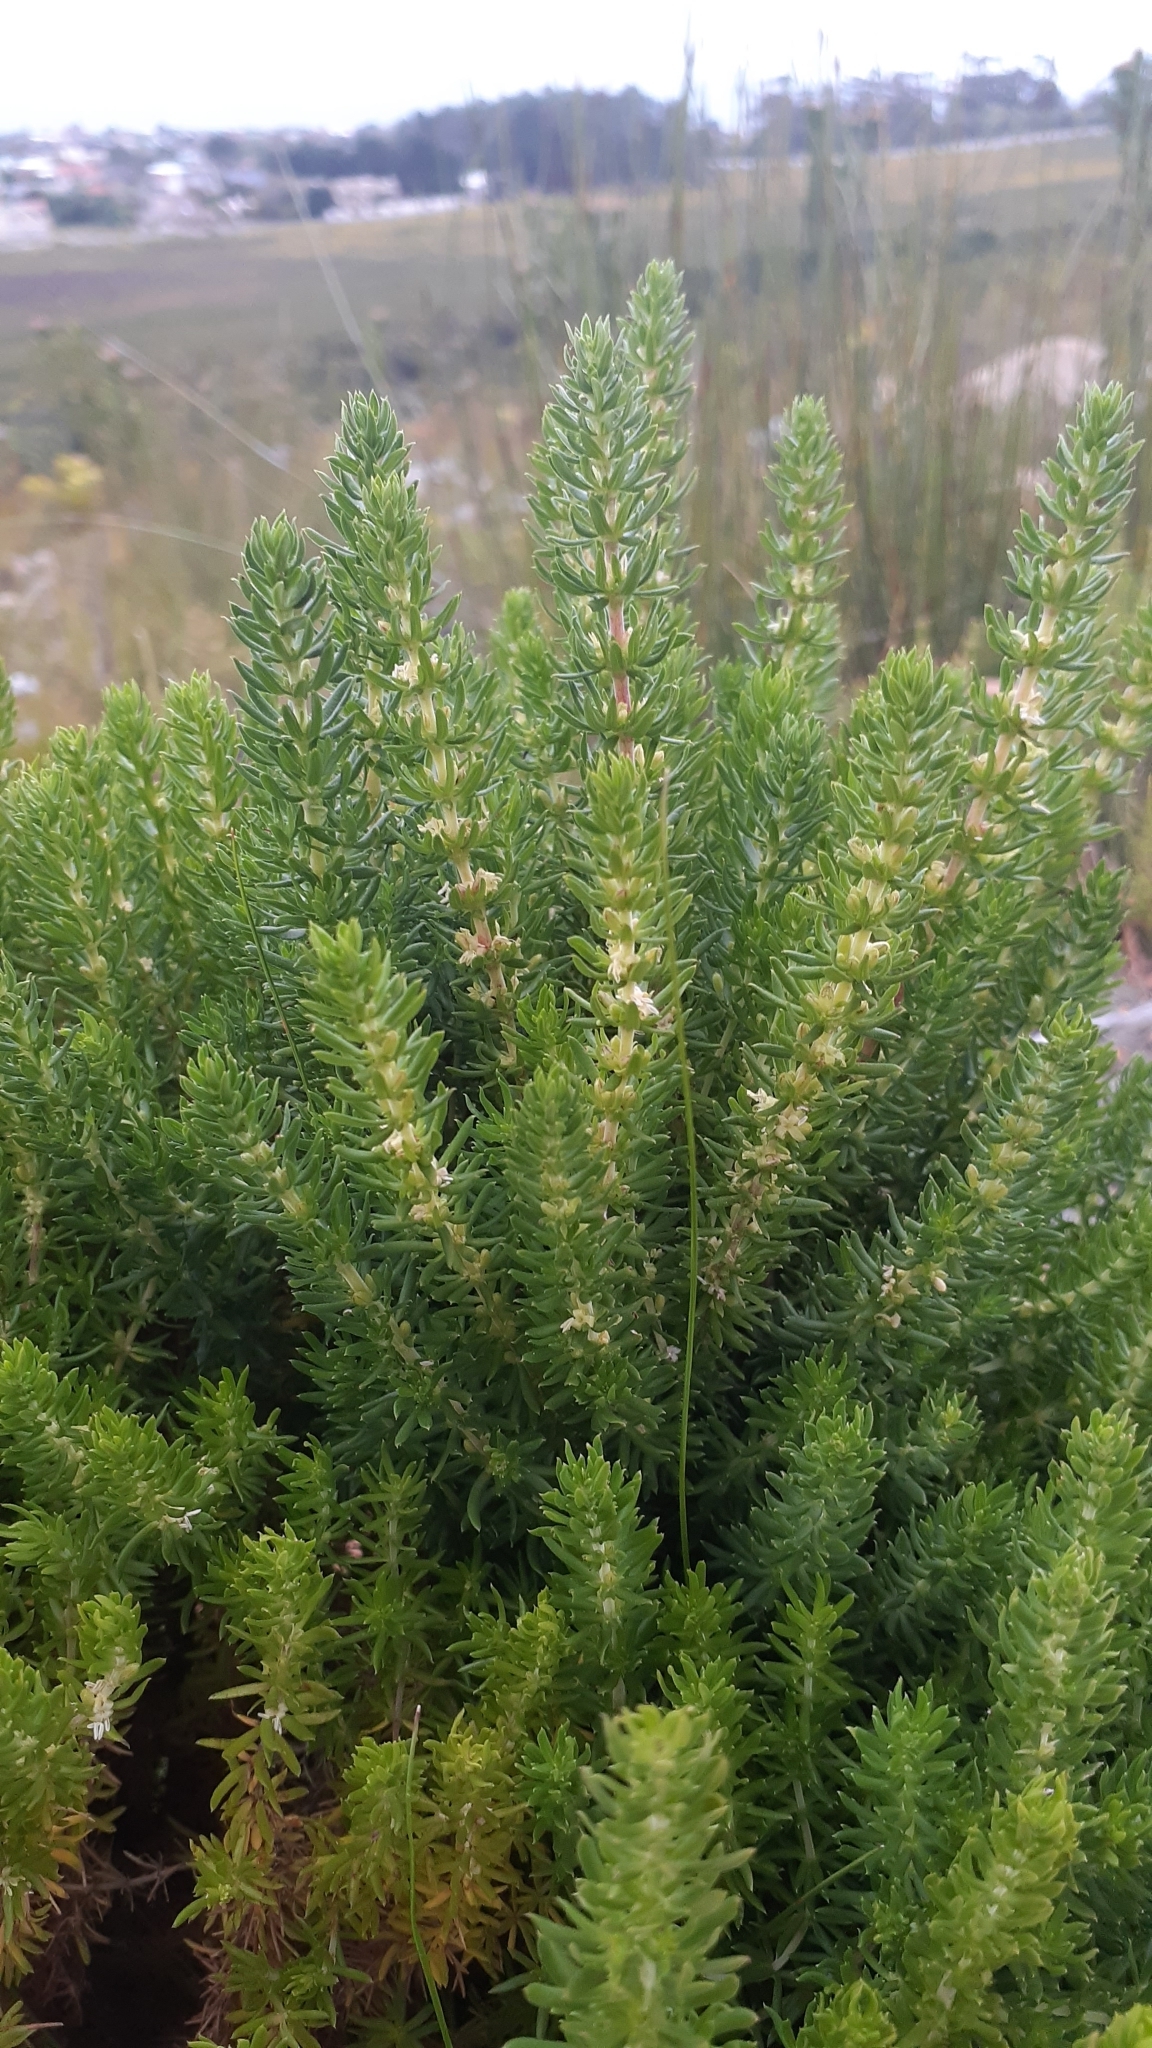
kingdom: Plantae
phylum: Tracheophyta
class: Magnoliopsida
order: Gentianales
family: Rubiaceae
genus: Anthospermum
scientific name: Anthospermum aethiopicum
